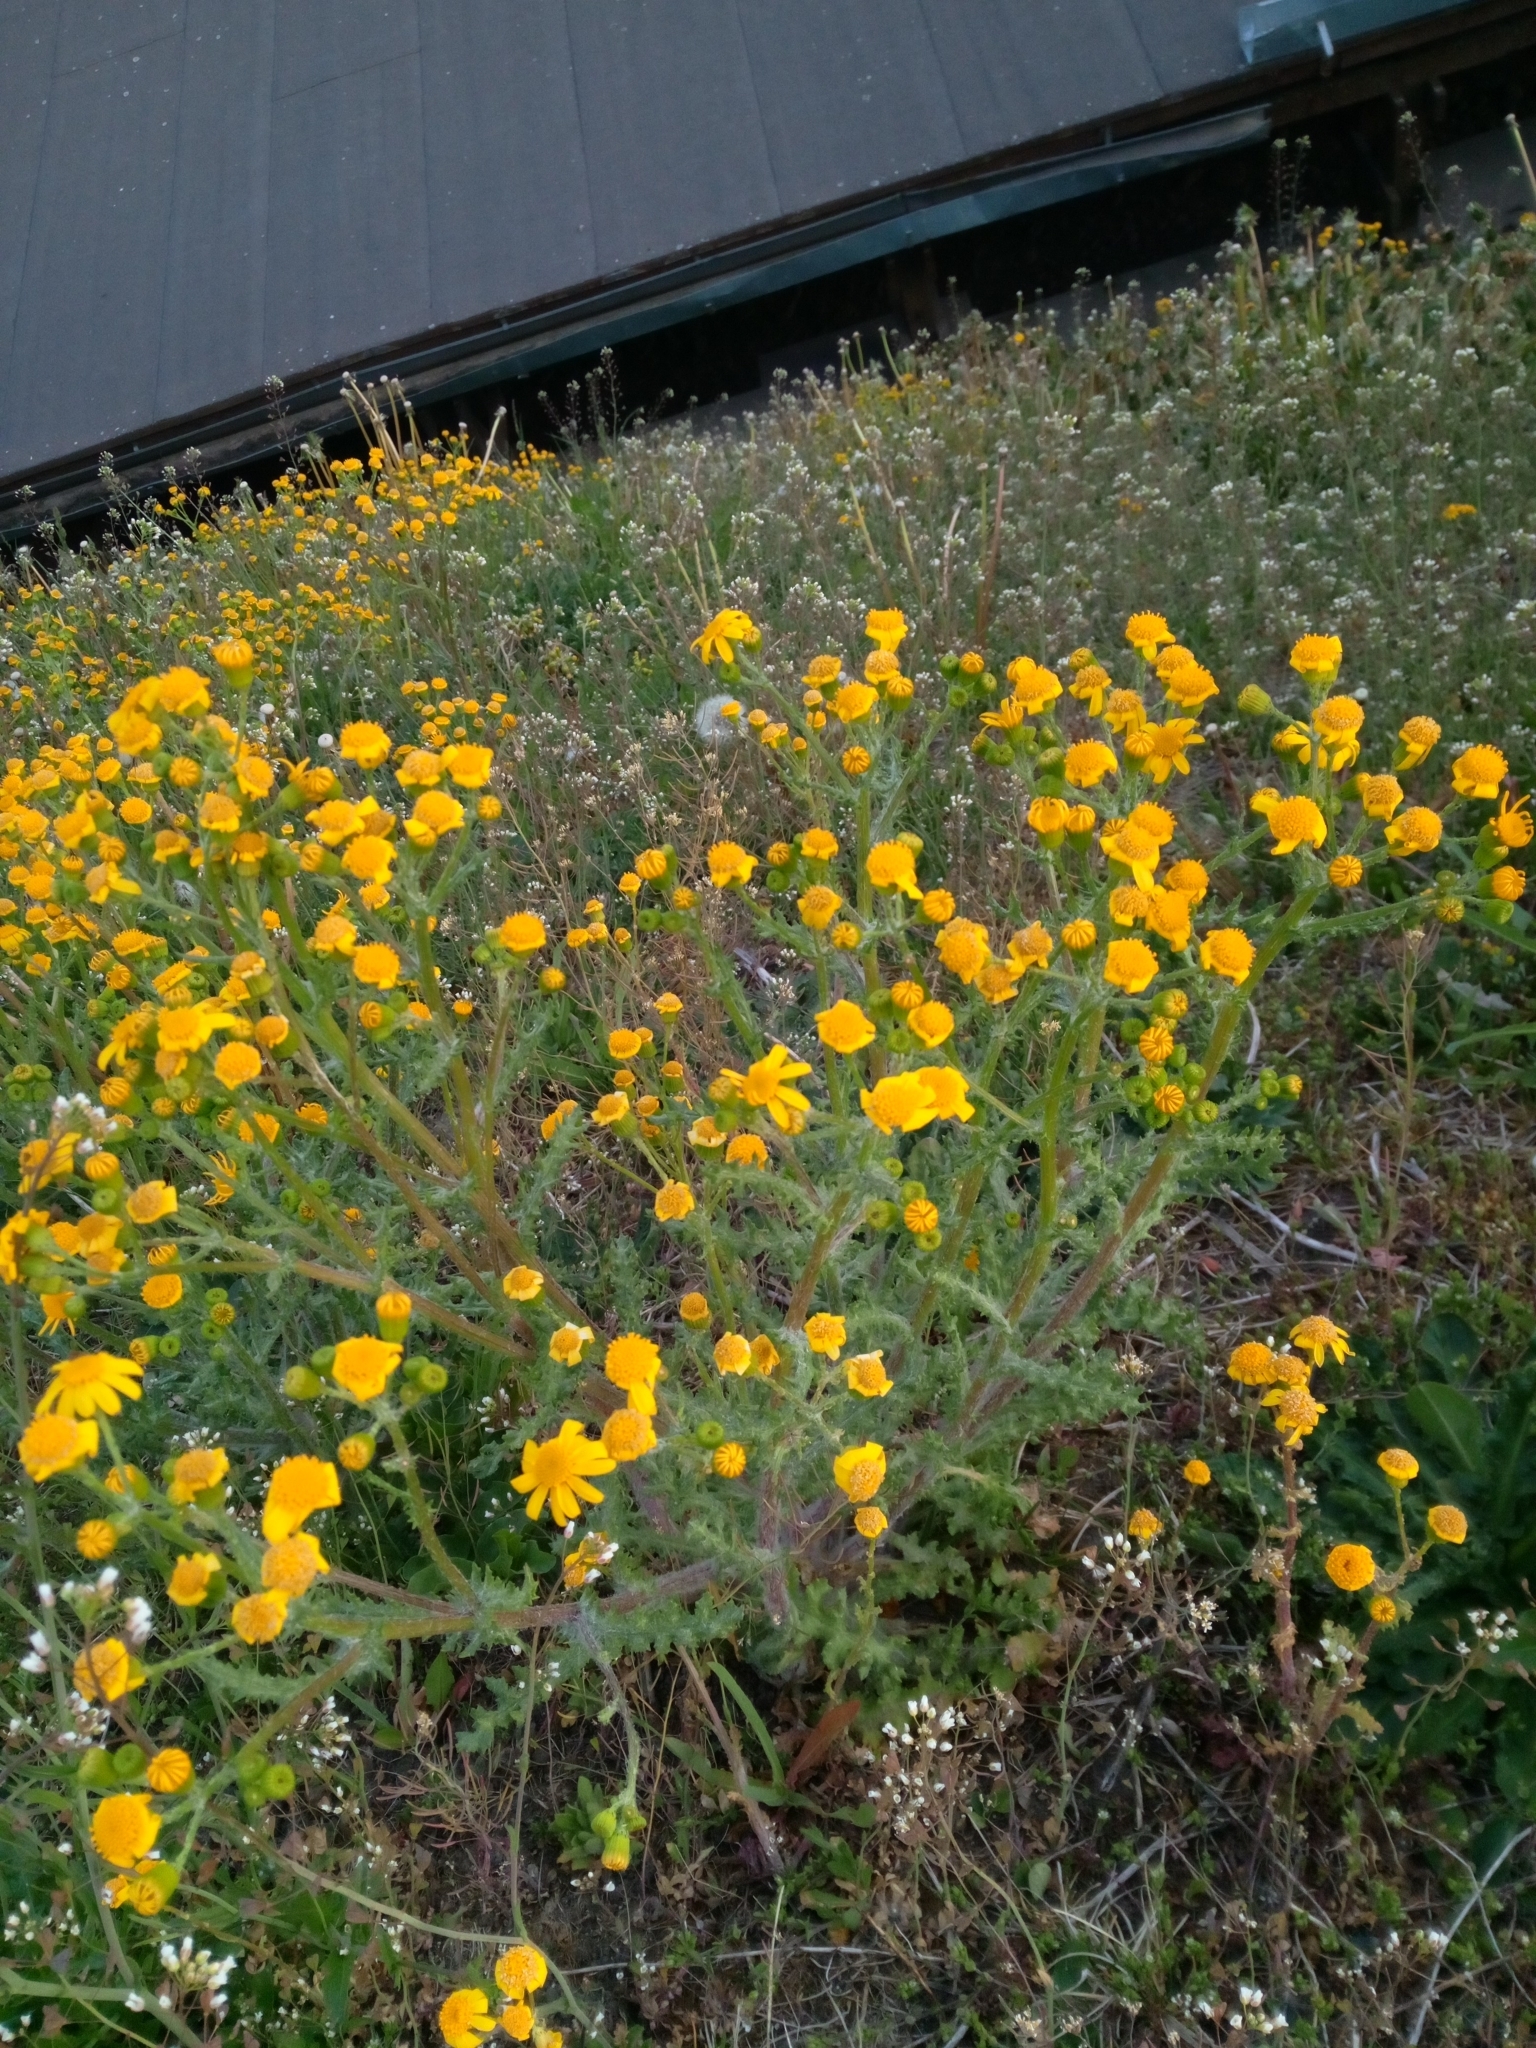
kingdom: Plantae
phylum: Tracheophyta
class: Magnoliopsida
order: Asterales
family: Asteraceae
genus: Senecio
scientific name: Senecio vernalis
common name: Eastern groundsel
